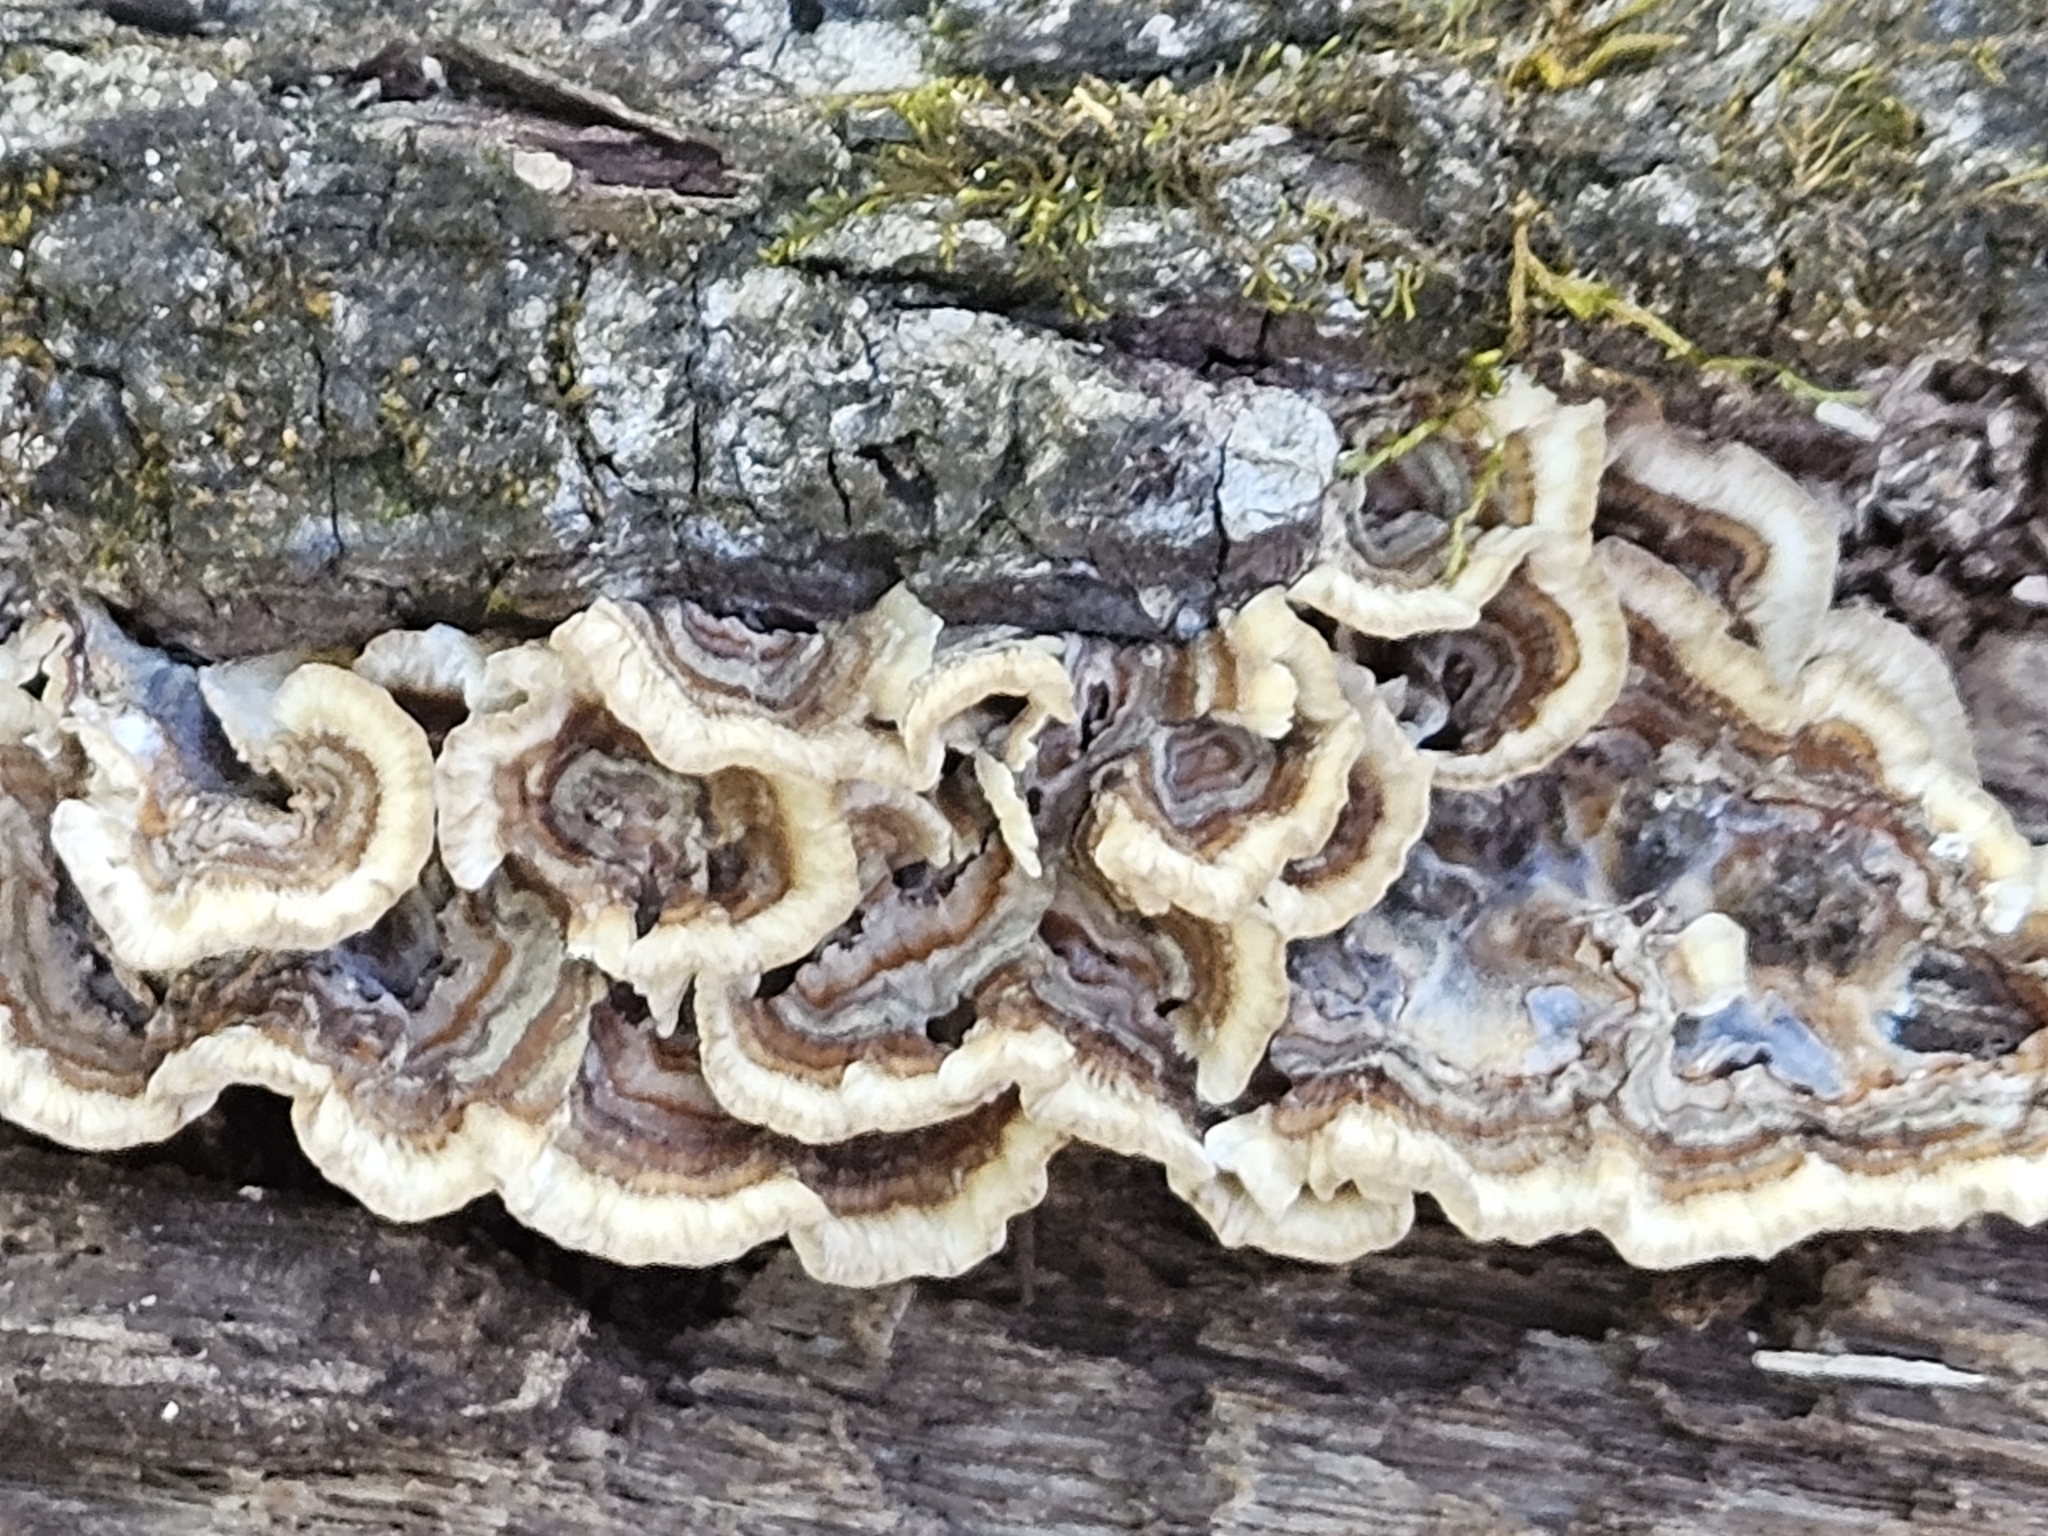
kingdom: Fungi
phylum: Basidiomycota
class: Agaricomycetes
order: Polyporales
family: Polyporaceae
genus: Trametes
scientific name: Trametes versicolor
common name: Turkeytail
